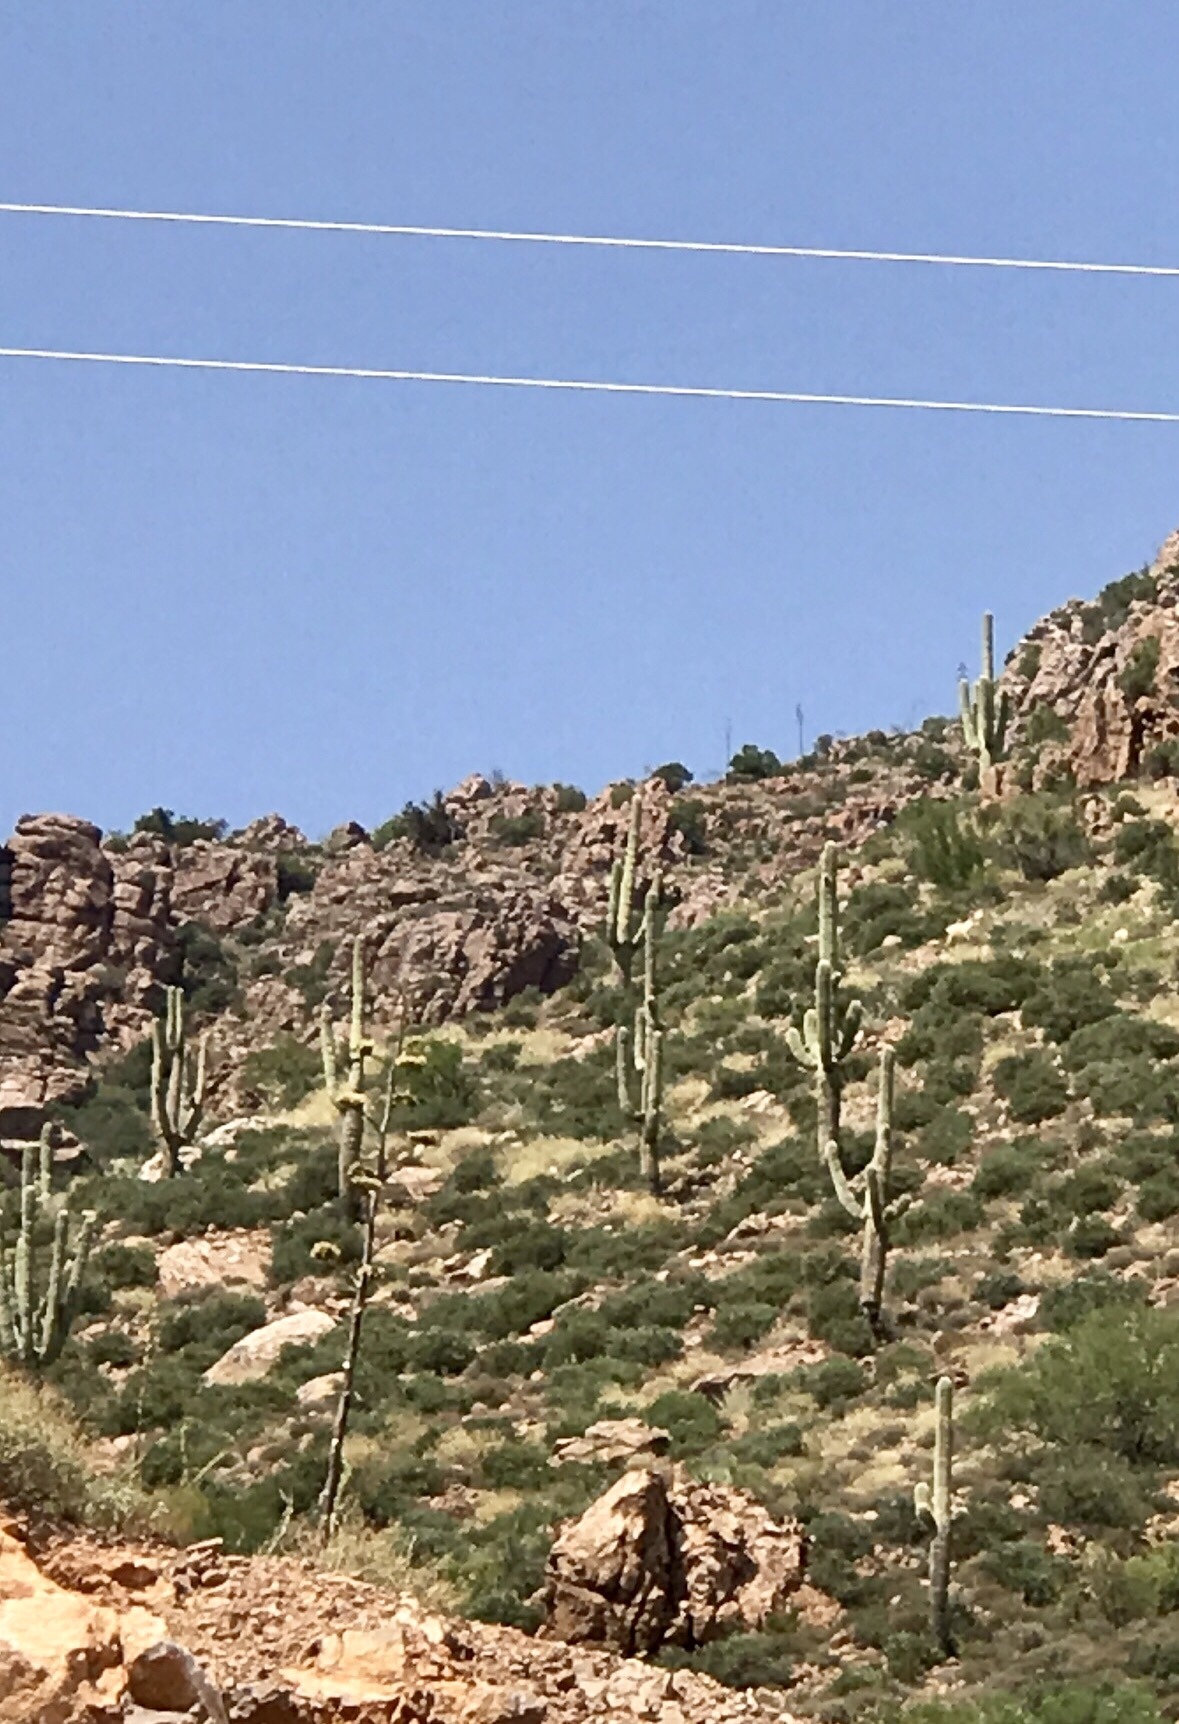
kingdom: Plantae
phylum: Tracheophyta
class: Magnoliopsida
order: Caryophyllales
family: Cactaceae
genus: Carnegiea
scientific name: Carnegiea gigantea
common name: Saguaro
